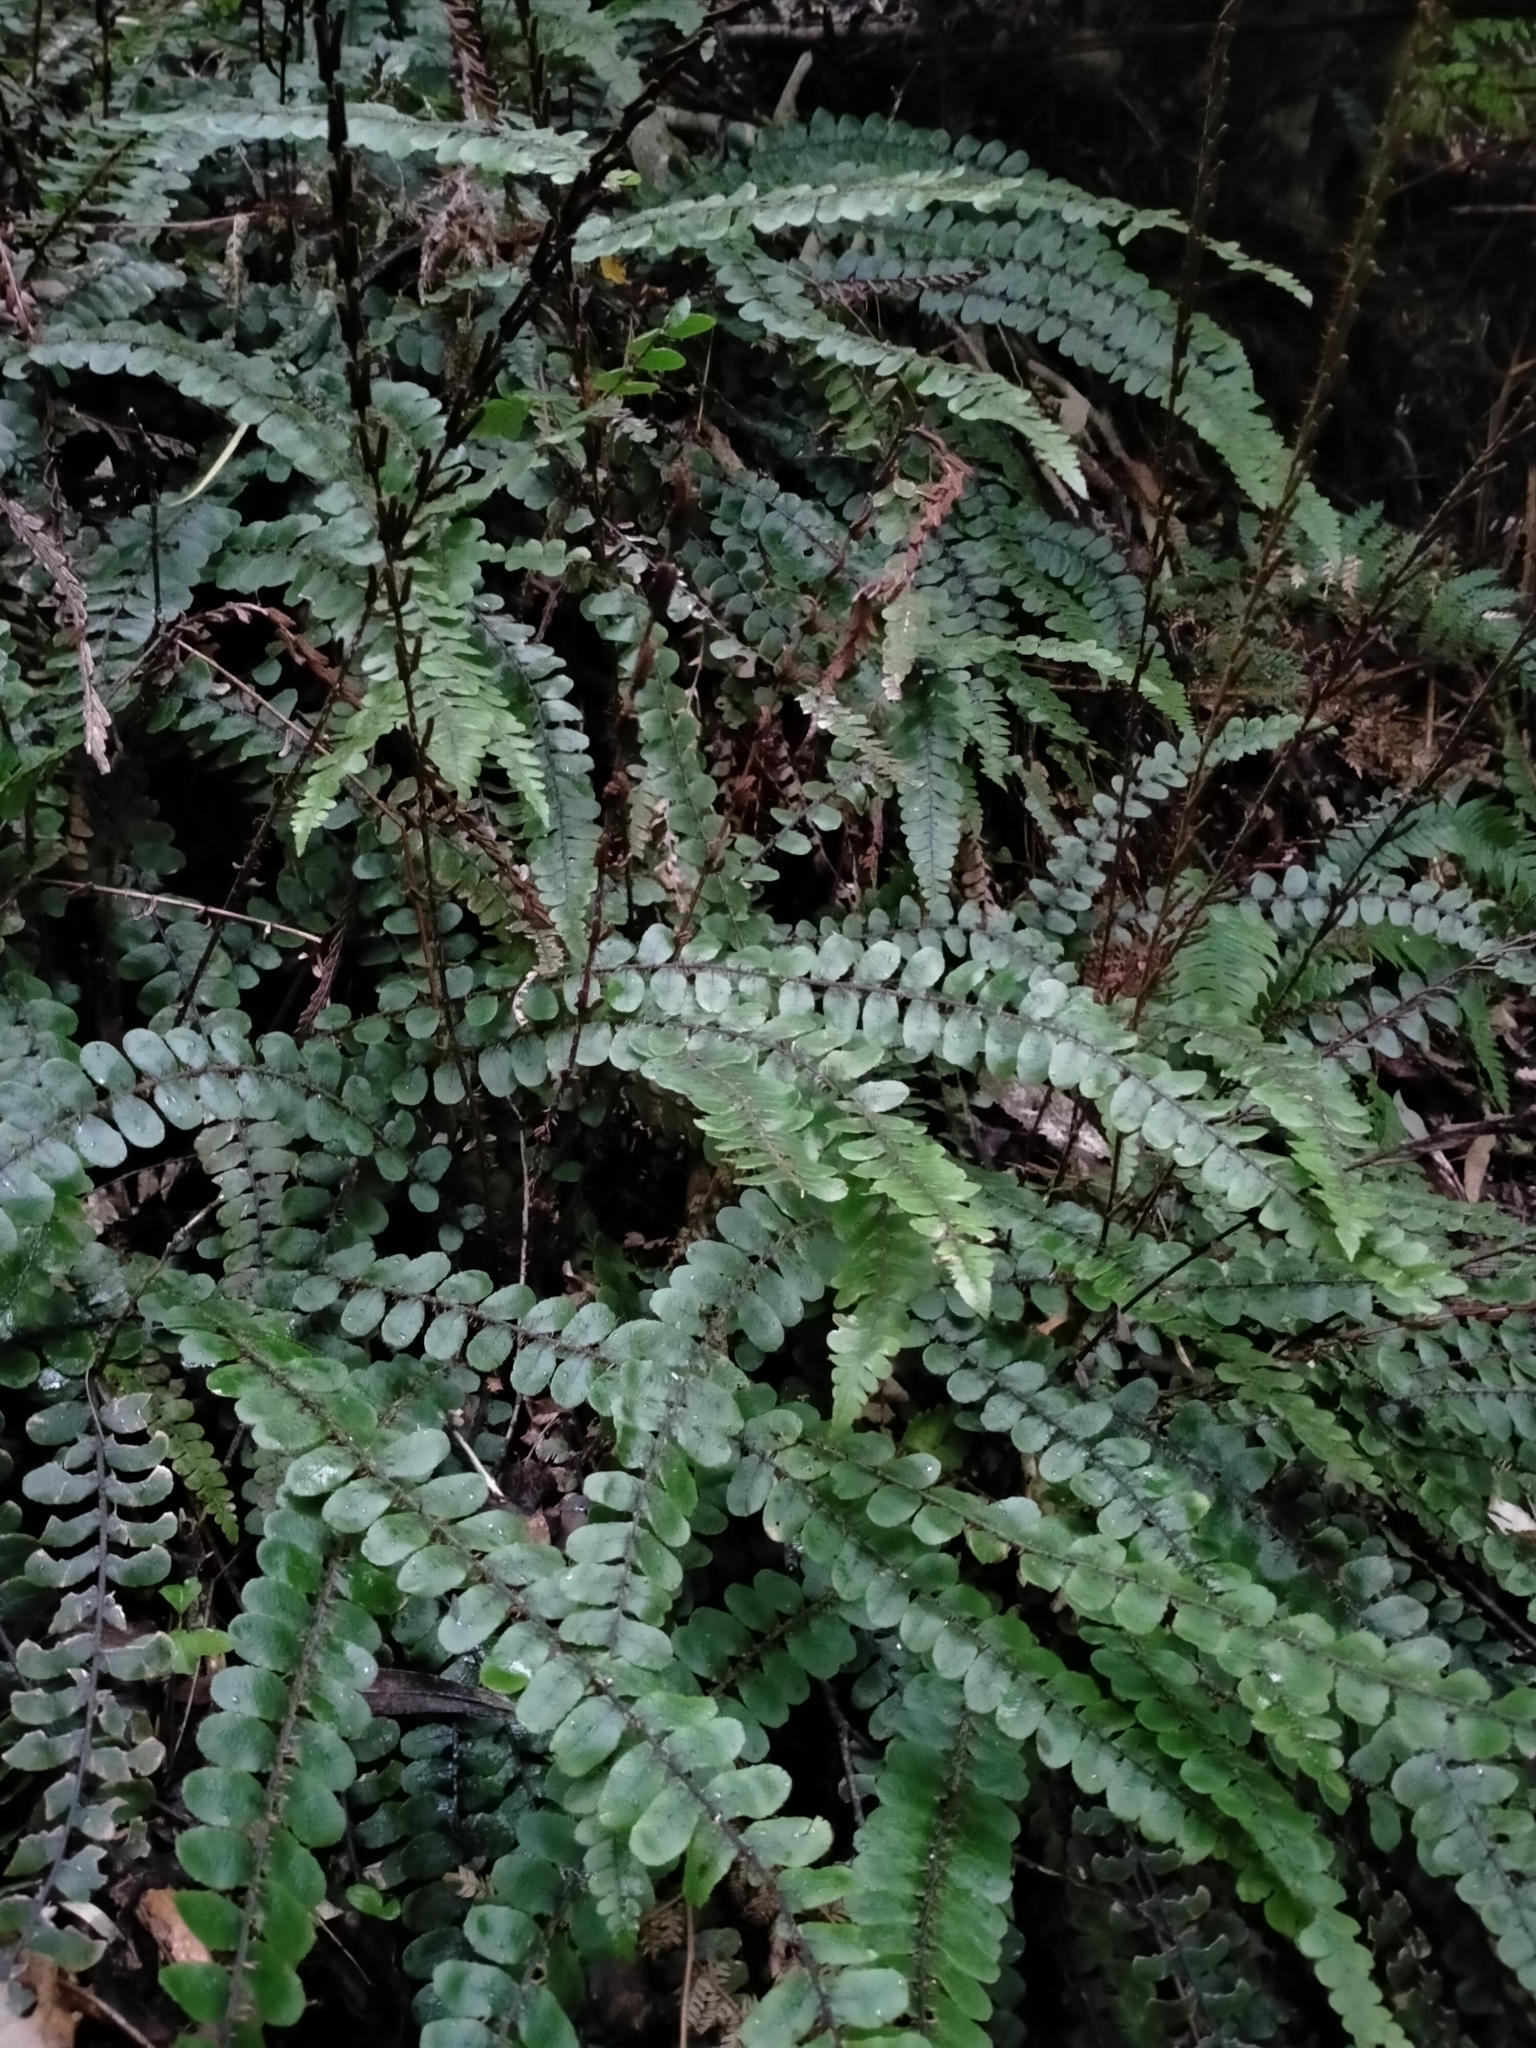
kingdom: Plantae
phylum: Tracheophyta
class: Polypodiopsida
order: Polypodiales
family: Blechnaceae
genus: Cranfillia
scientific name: Cranfillia fluviatilis
